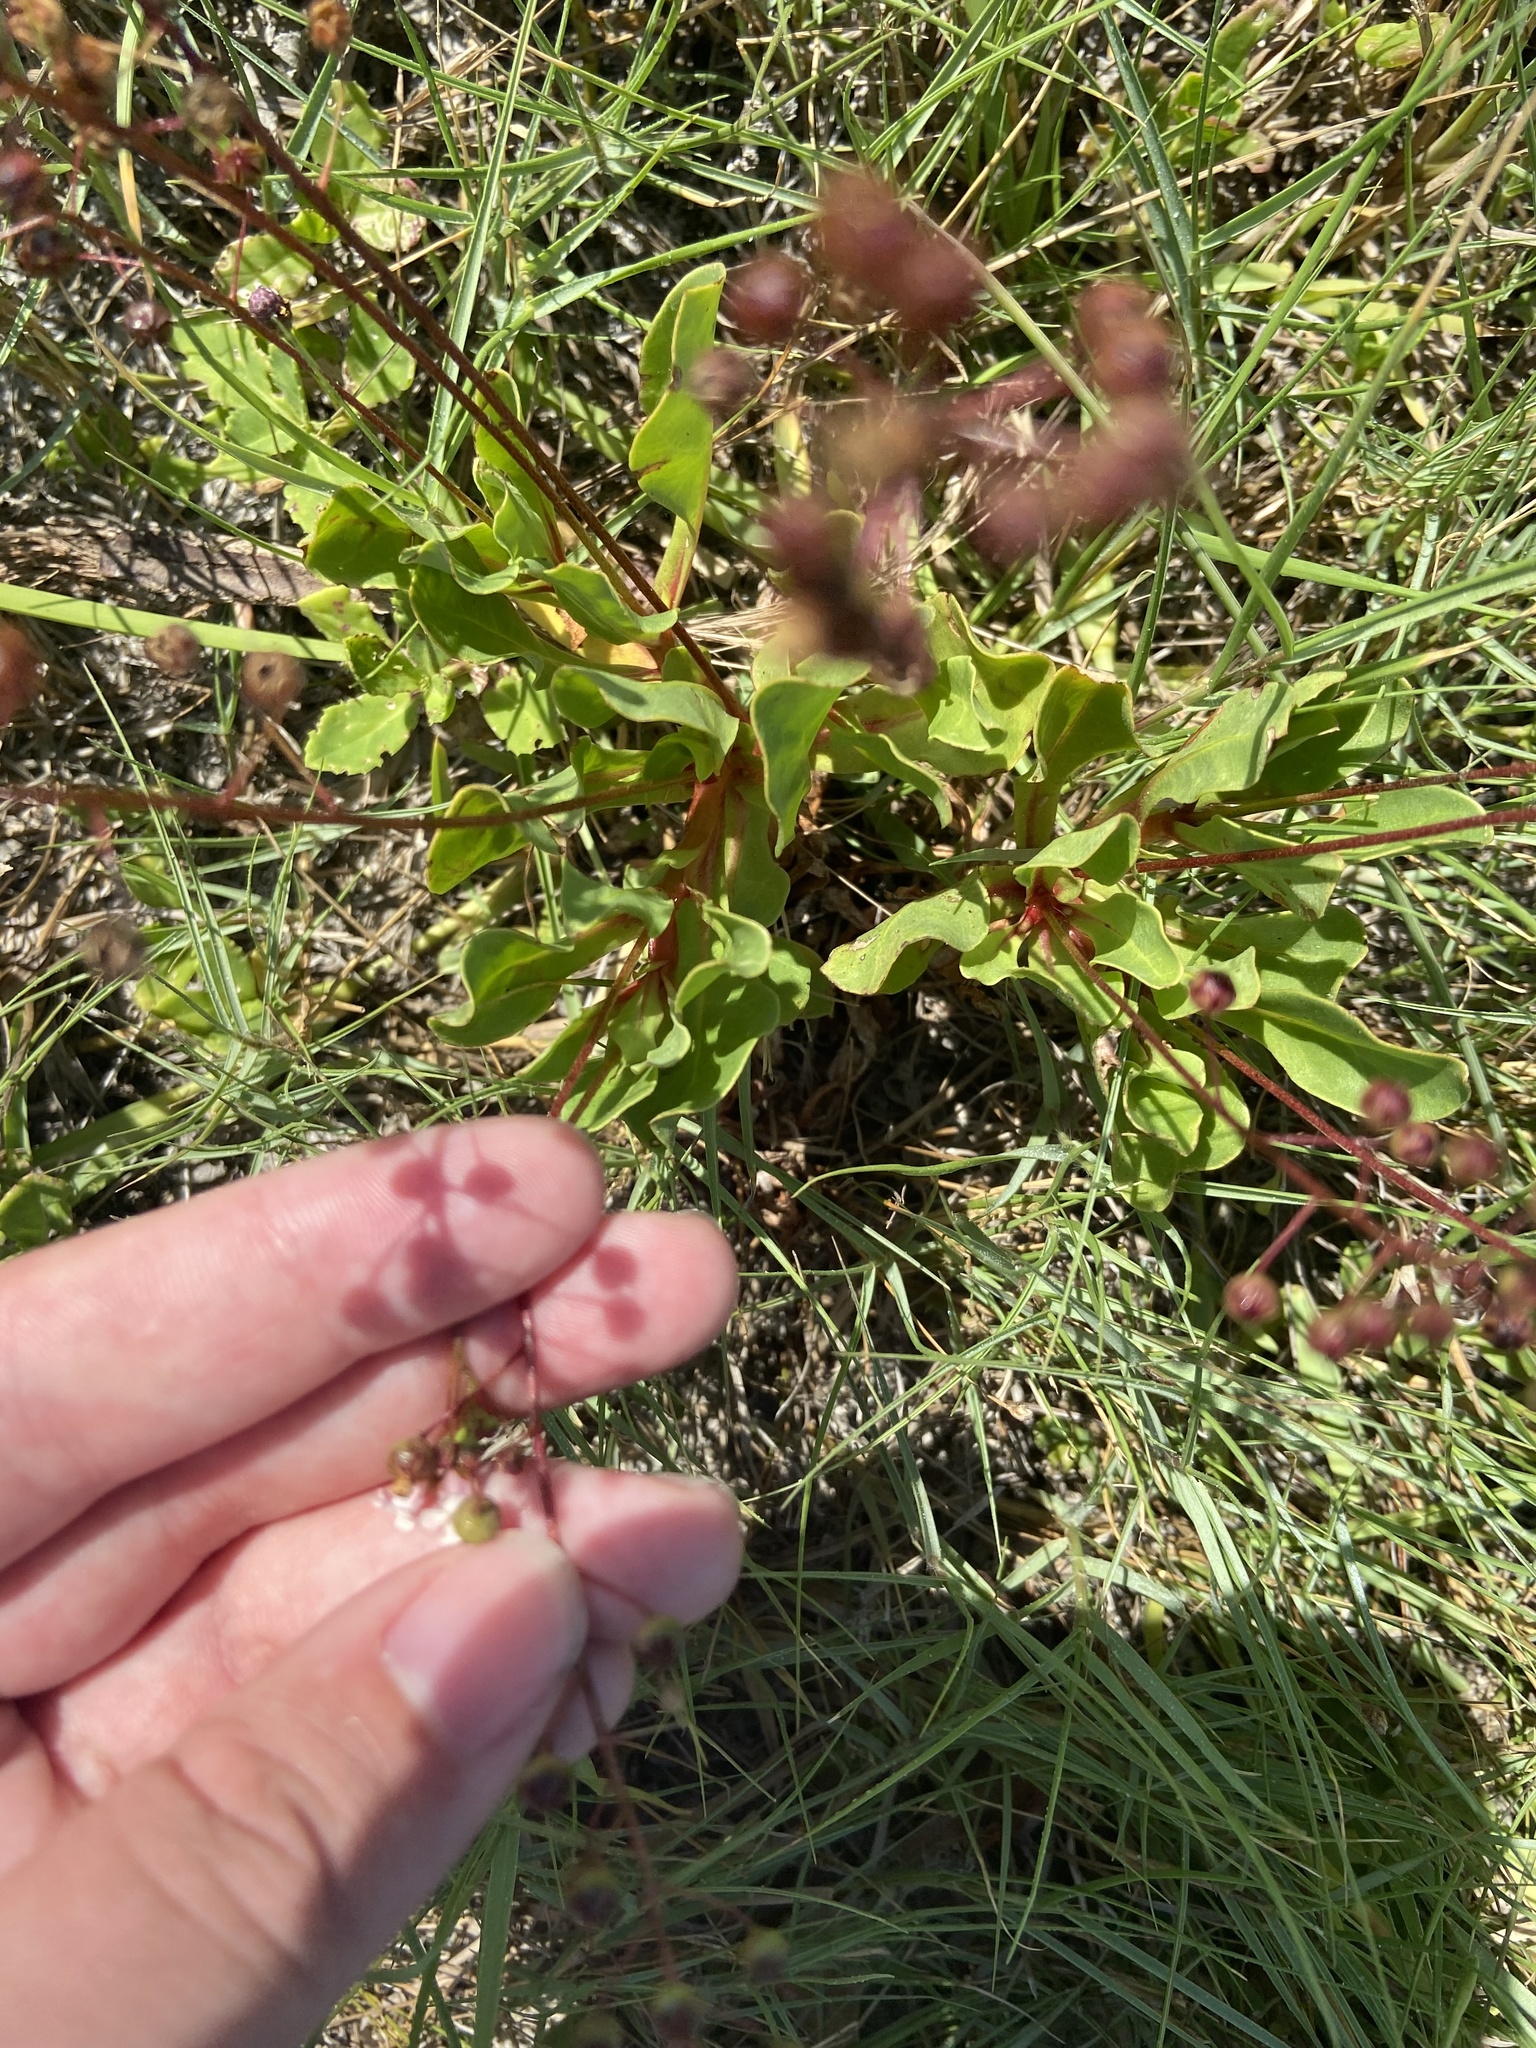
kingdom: Plantae
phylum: Tracheophyta
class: Magnoliopsida
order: Ericales
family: Primulaceae
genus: Samolus
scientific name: Samolus ebracteatus
